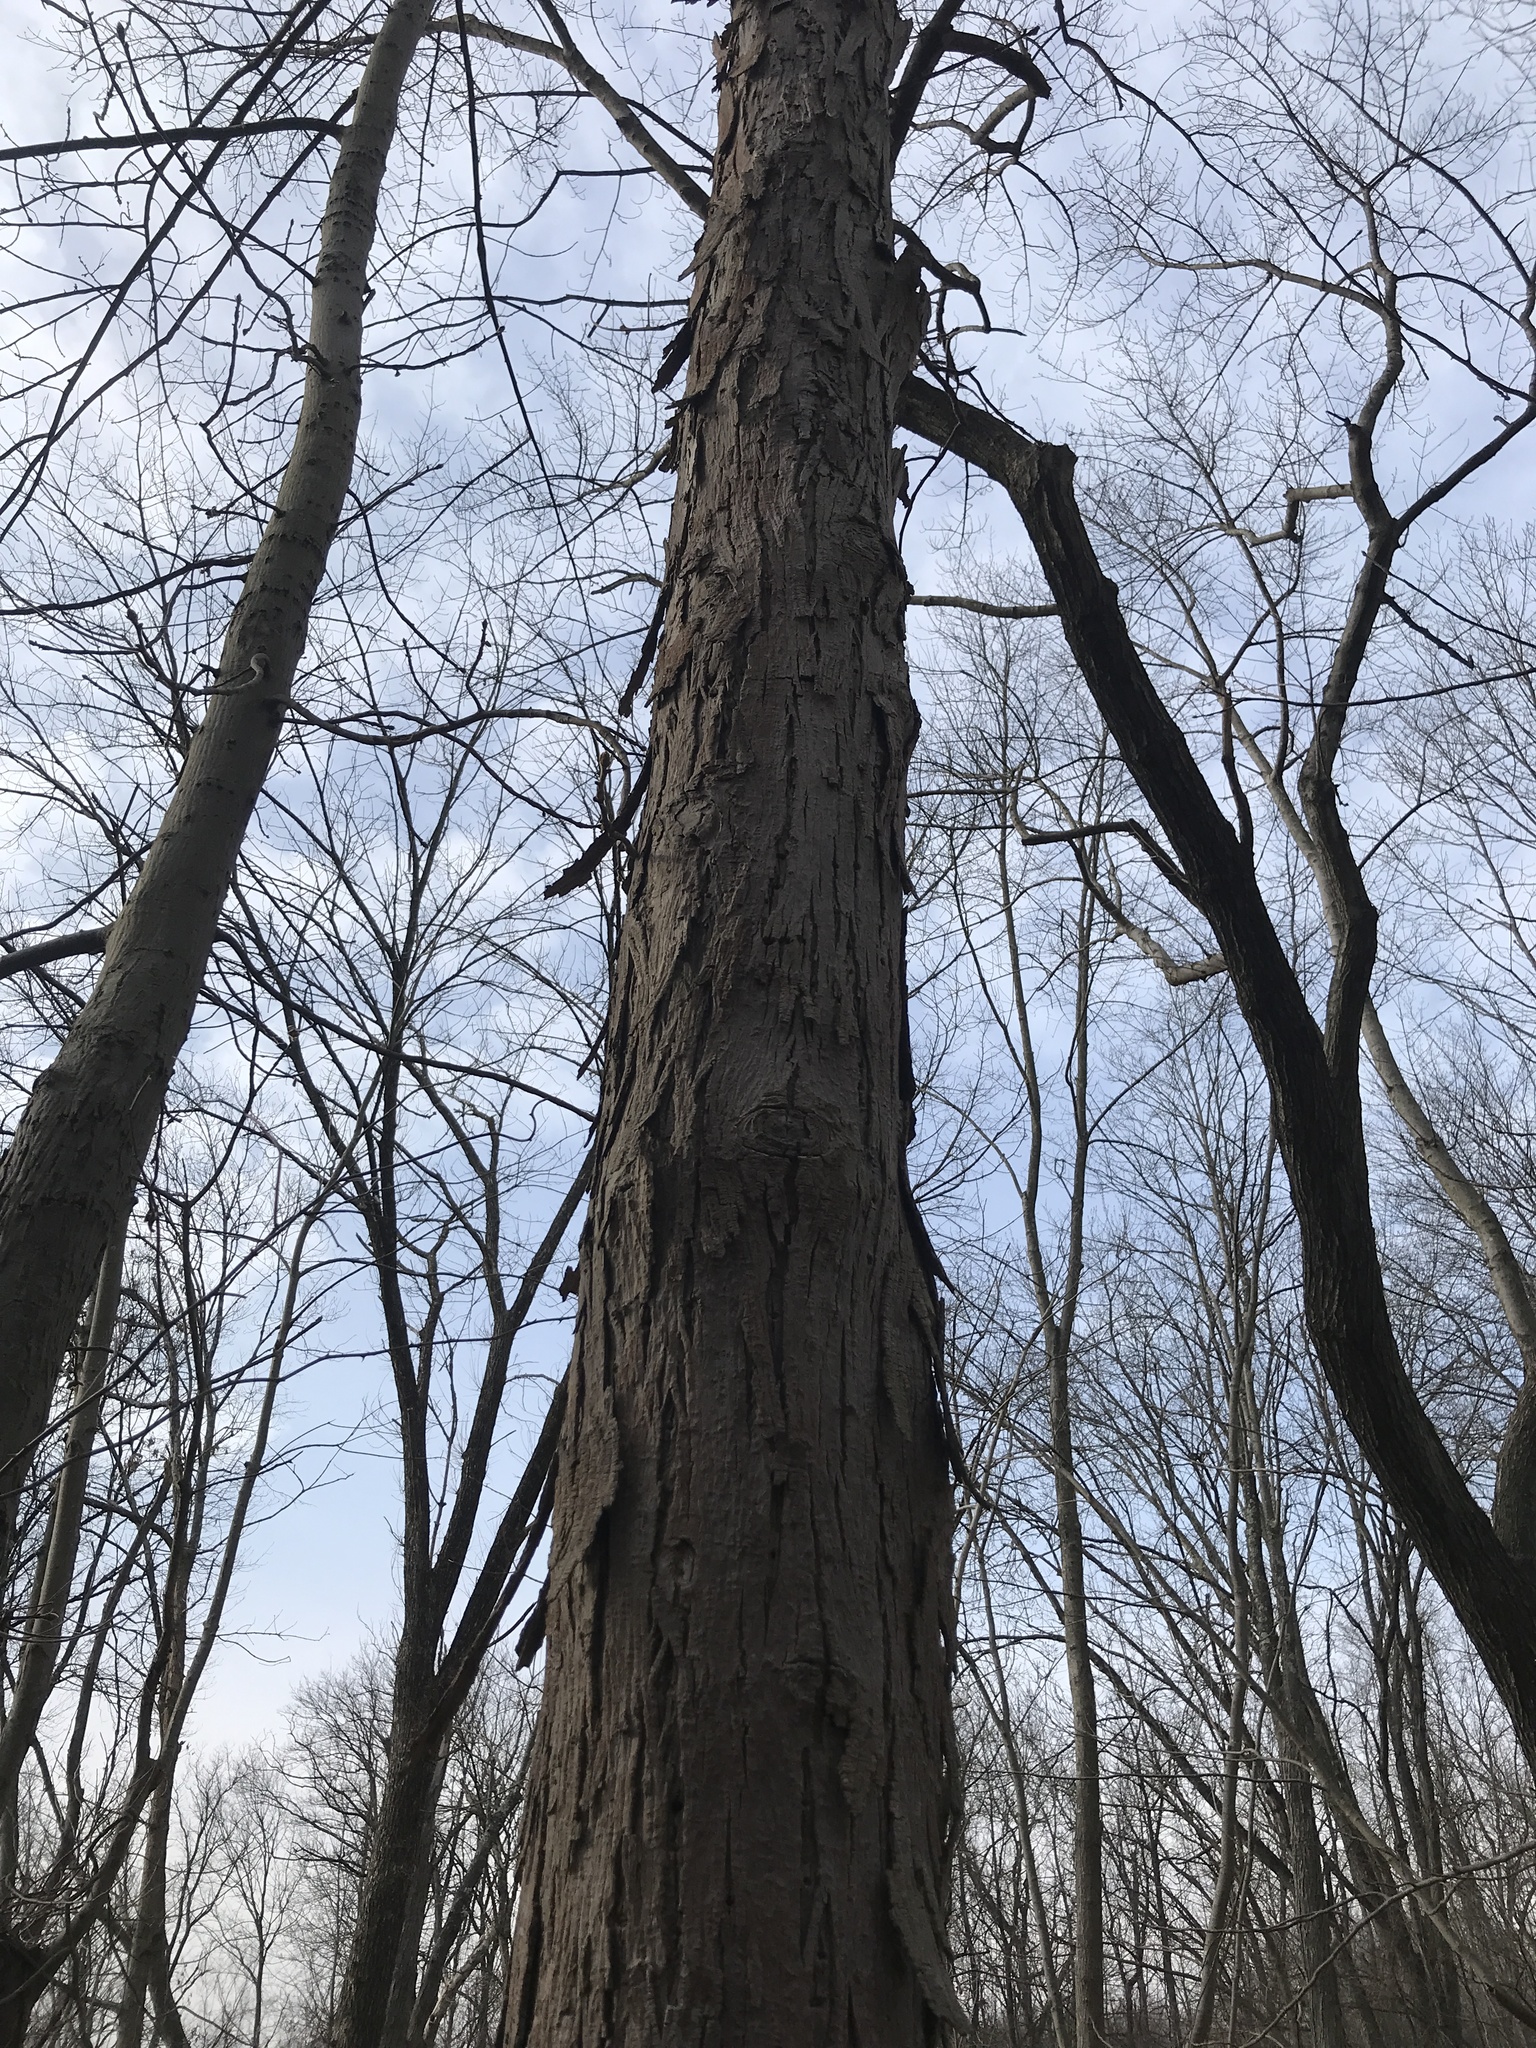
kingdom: Plantae
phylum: Tracheophyta
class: Magnoliopsida
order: Fagales
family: Juglandaceae
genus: Carya
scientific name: Carya ovata
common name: Shagbark hickory
